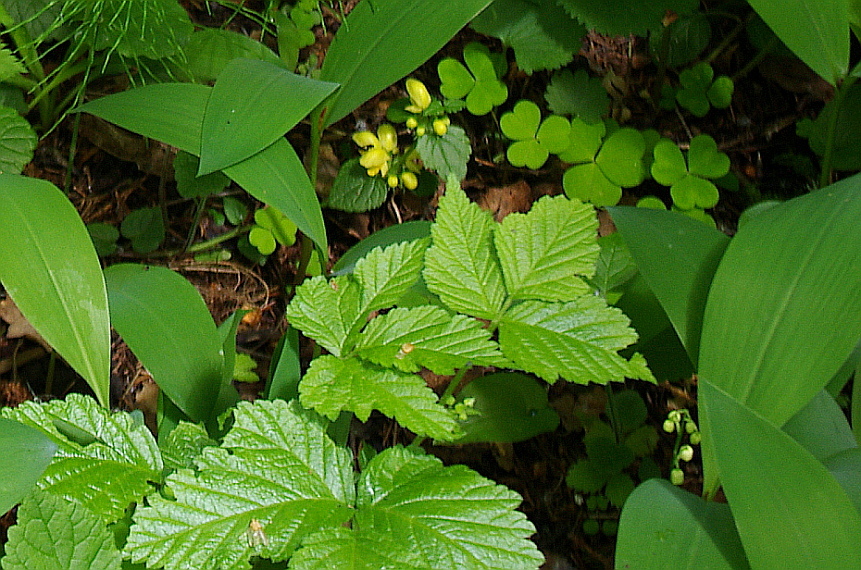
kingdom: Plantae
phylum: Tracheophyta
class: Magnoliopsida
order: Rosales
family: Rosaceae
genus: Rubus
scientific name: Rubus saxatilis
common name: Stone bramble
